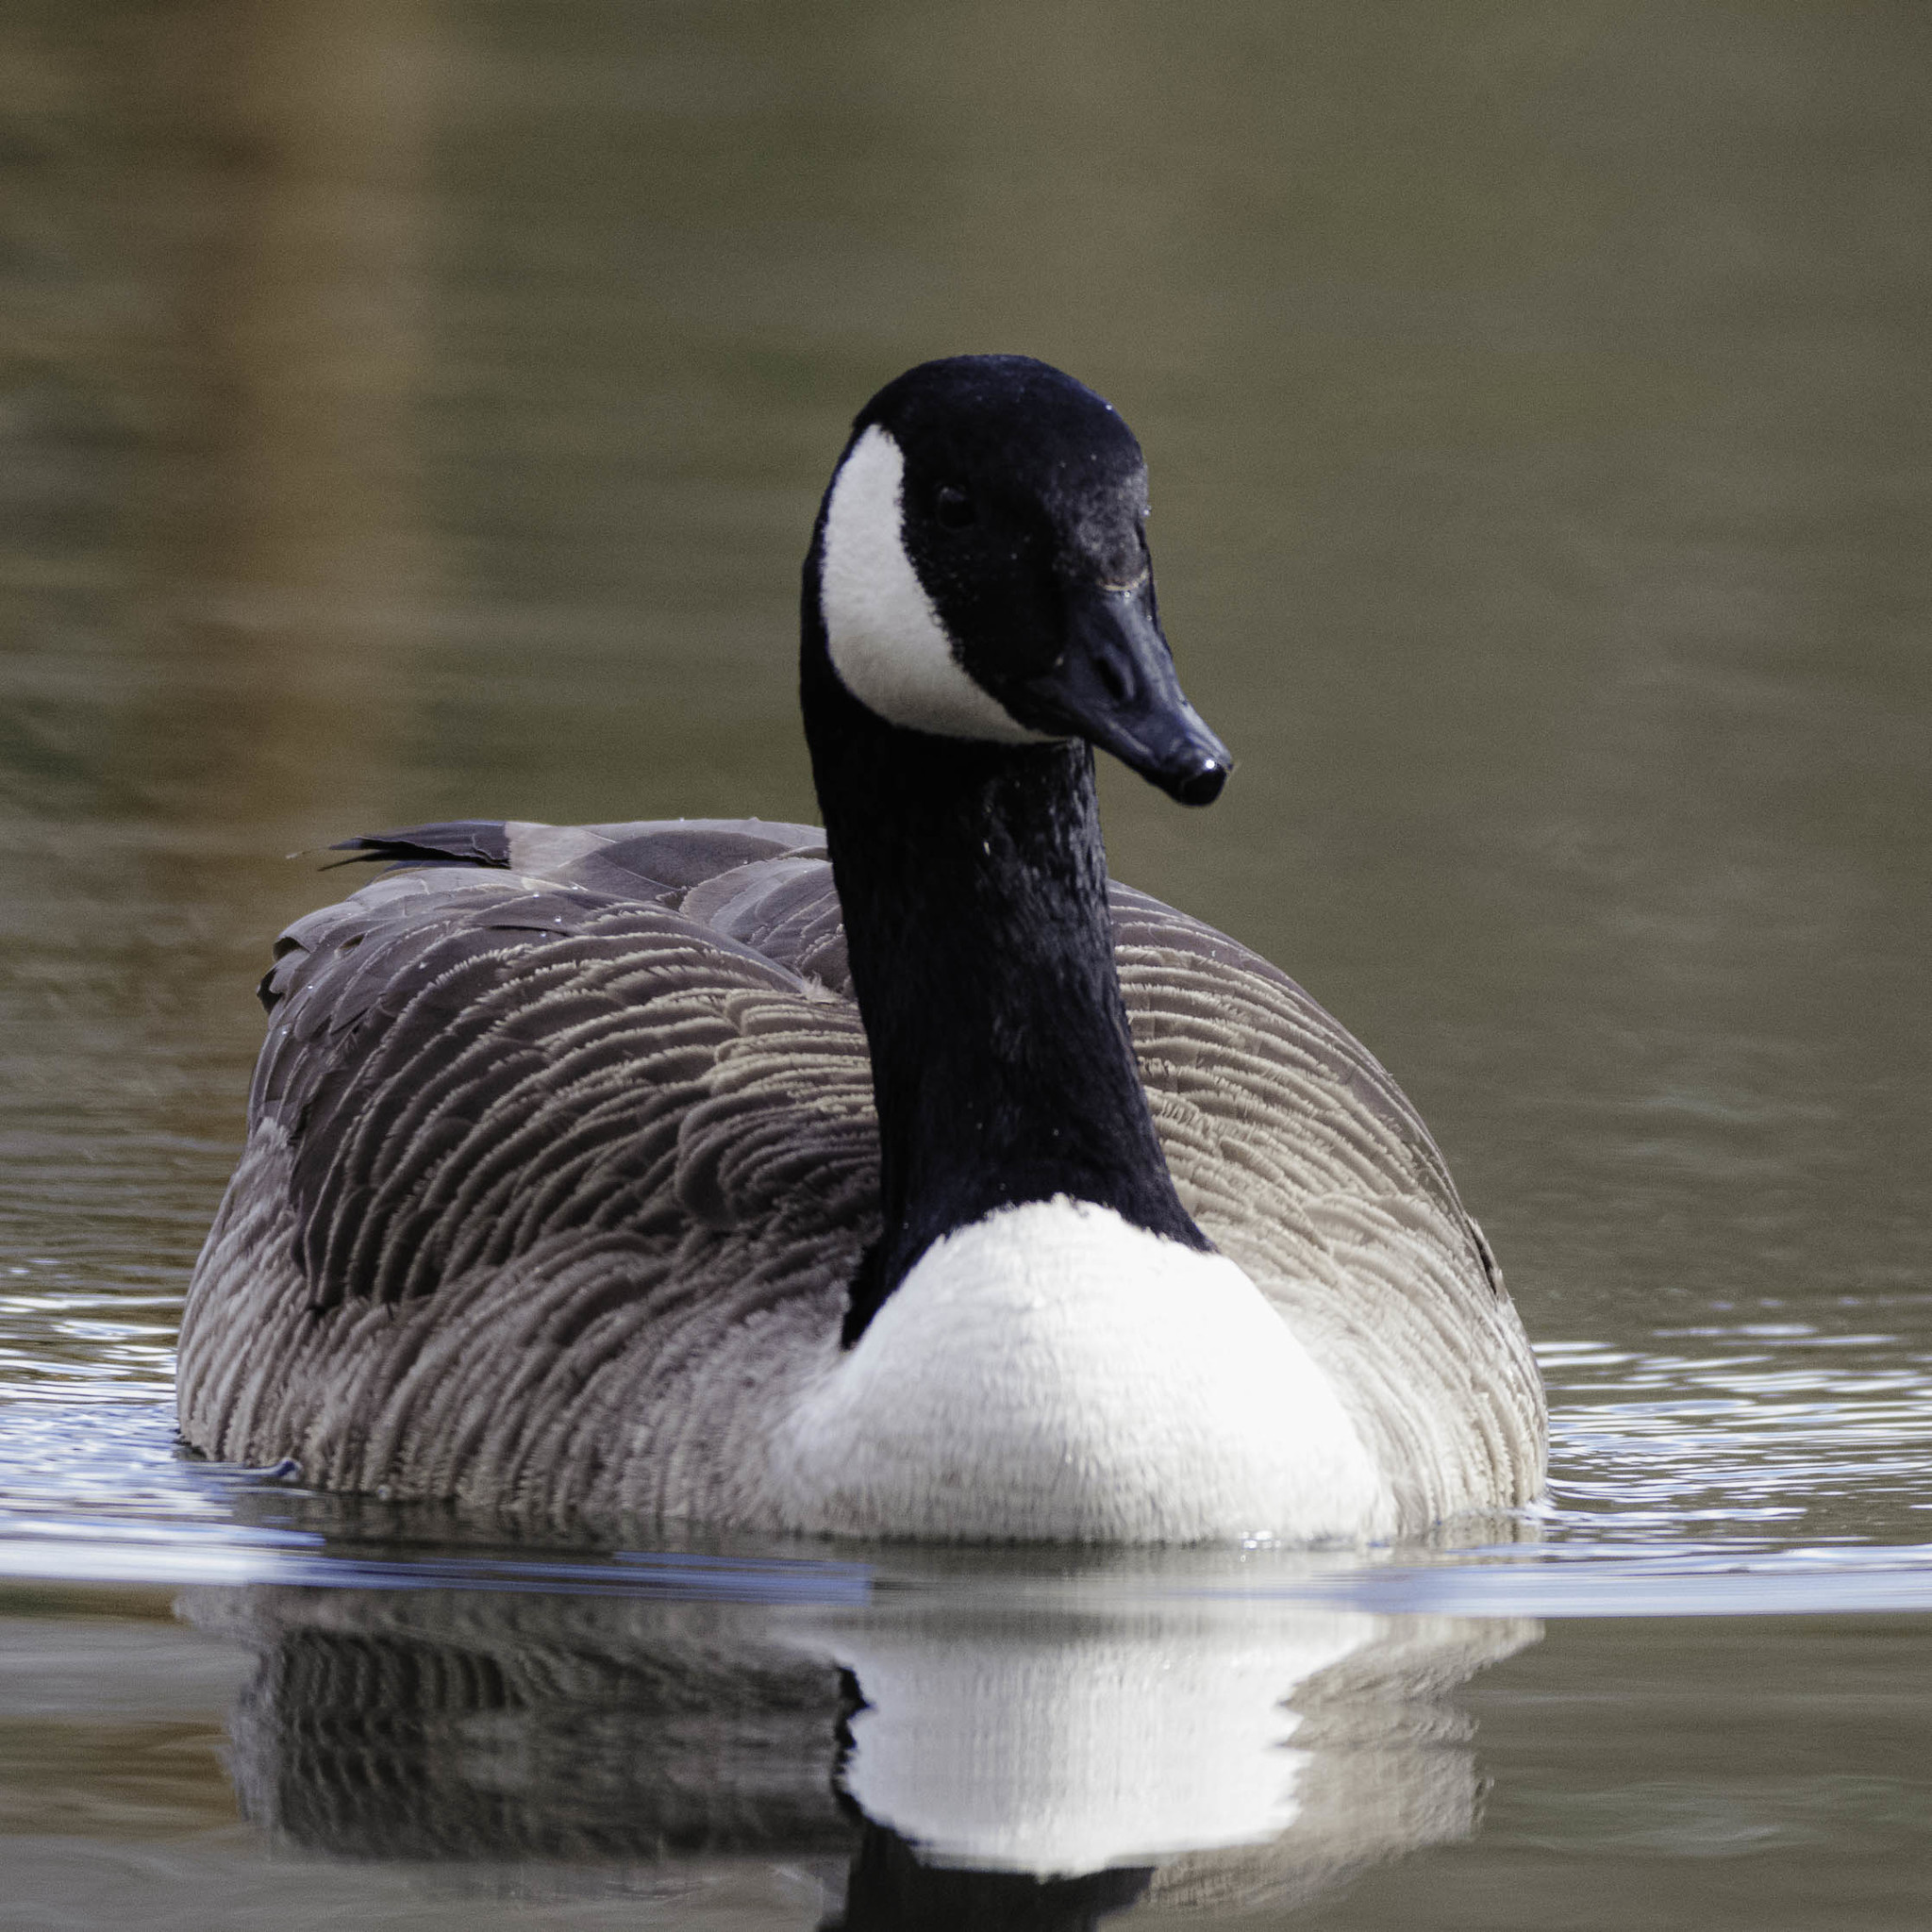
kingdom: Animalia
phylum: Chordata
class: Aves
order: Anseriformes
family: Anatidae
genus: Branta
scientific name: Branta canadensis
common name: Canada goose
